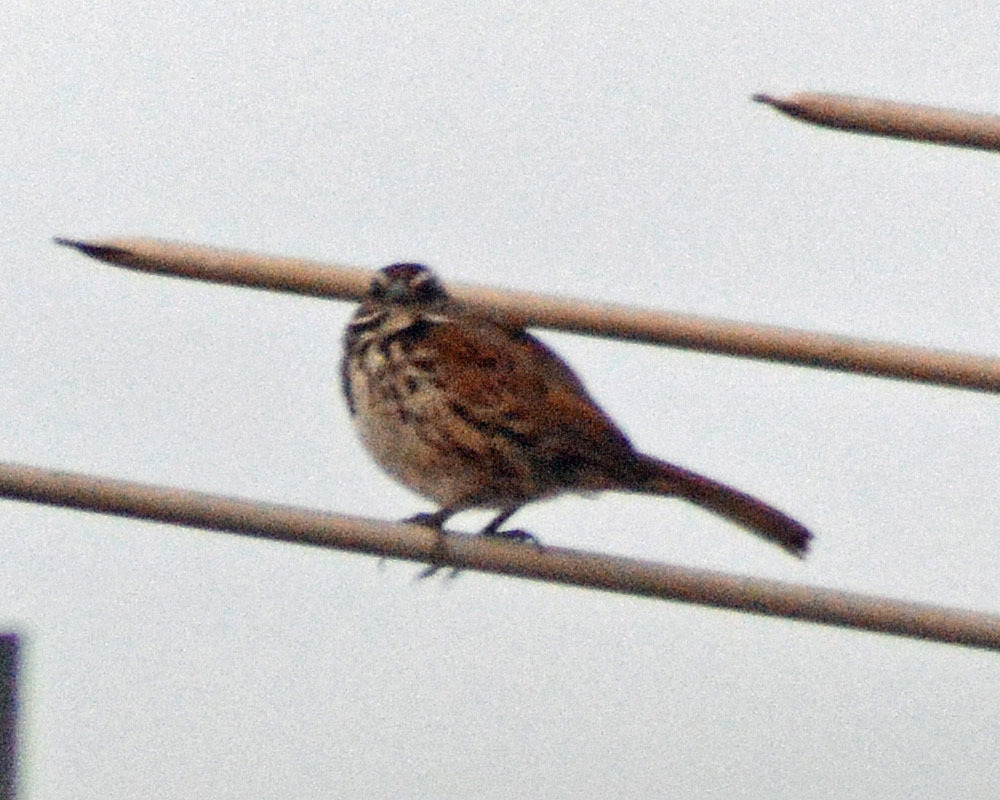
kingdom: Animalia
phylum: Chordata
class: Aves
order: Passeriformes
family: Passerellidae
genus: Melospiza
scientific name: Melospiza melodia
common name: Song sparrow
